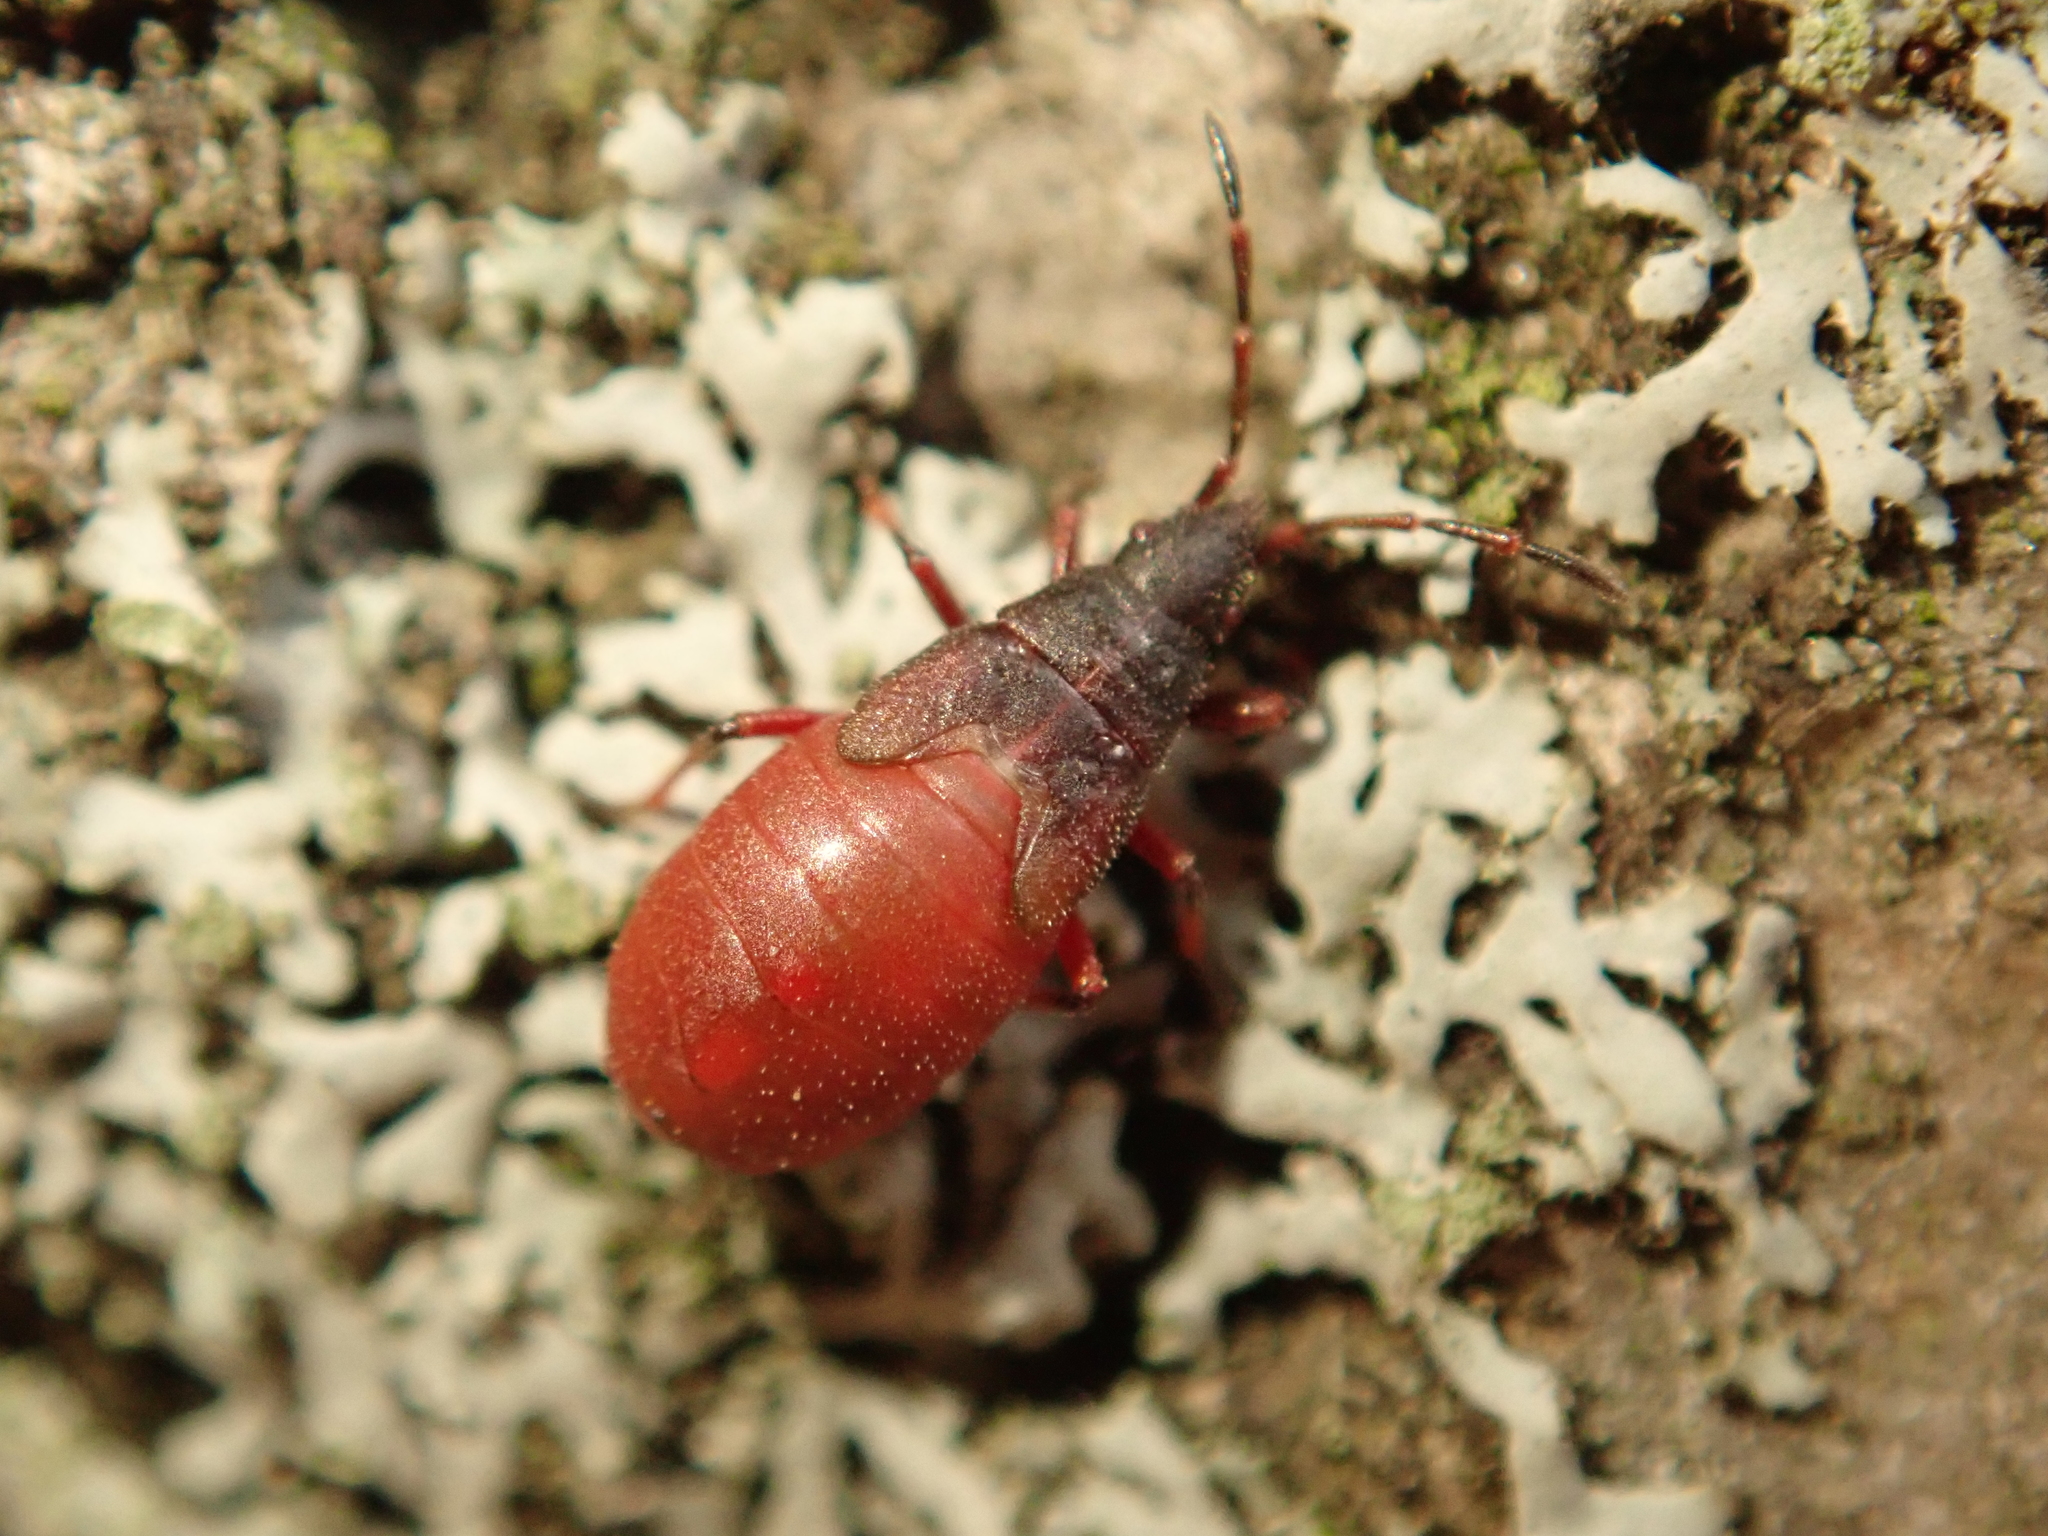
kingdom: Animalia
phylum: Arthropoda
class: Insecta
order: Hemiptera
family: Oxycarenidae
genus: Oxycarenus
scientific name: Oxycarenus lavaterae
